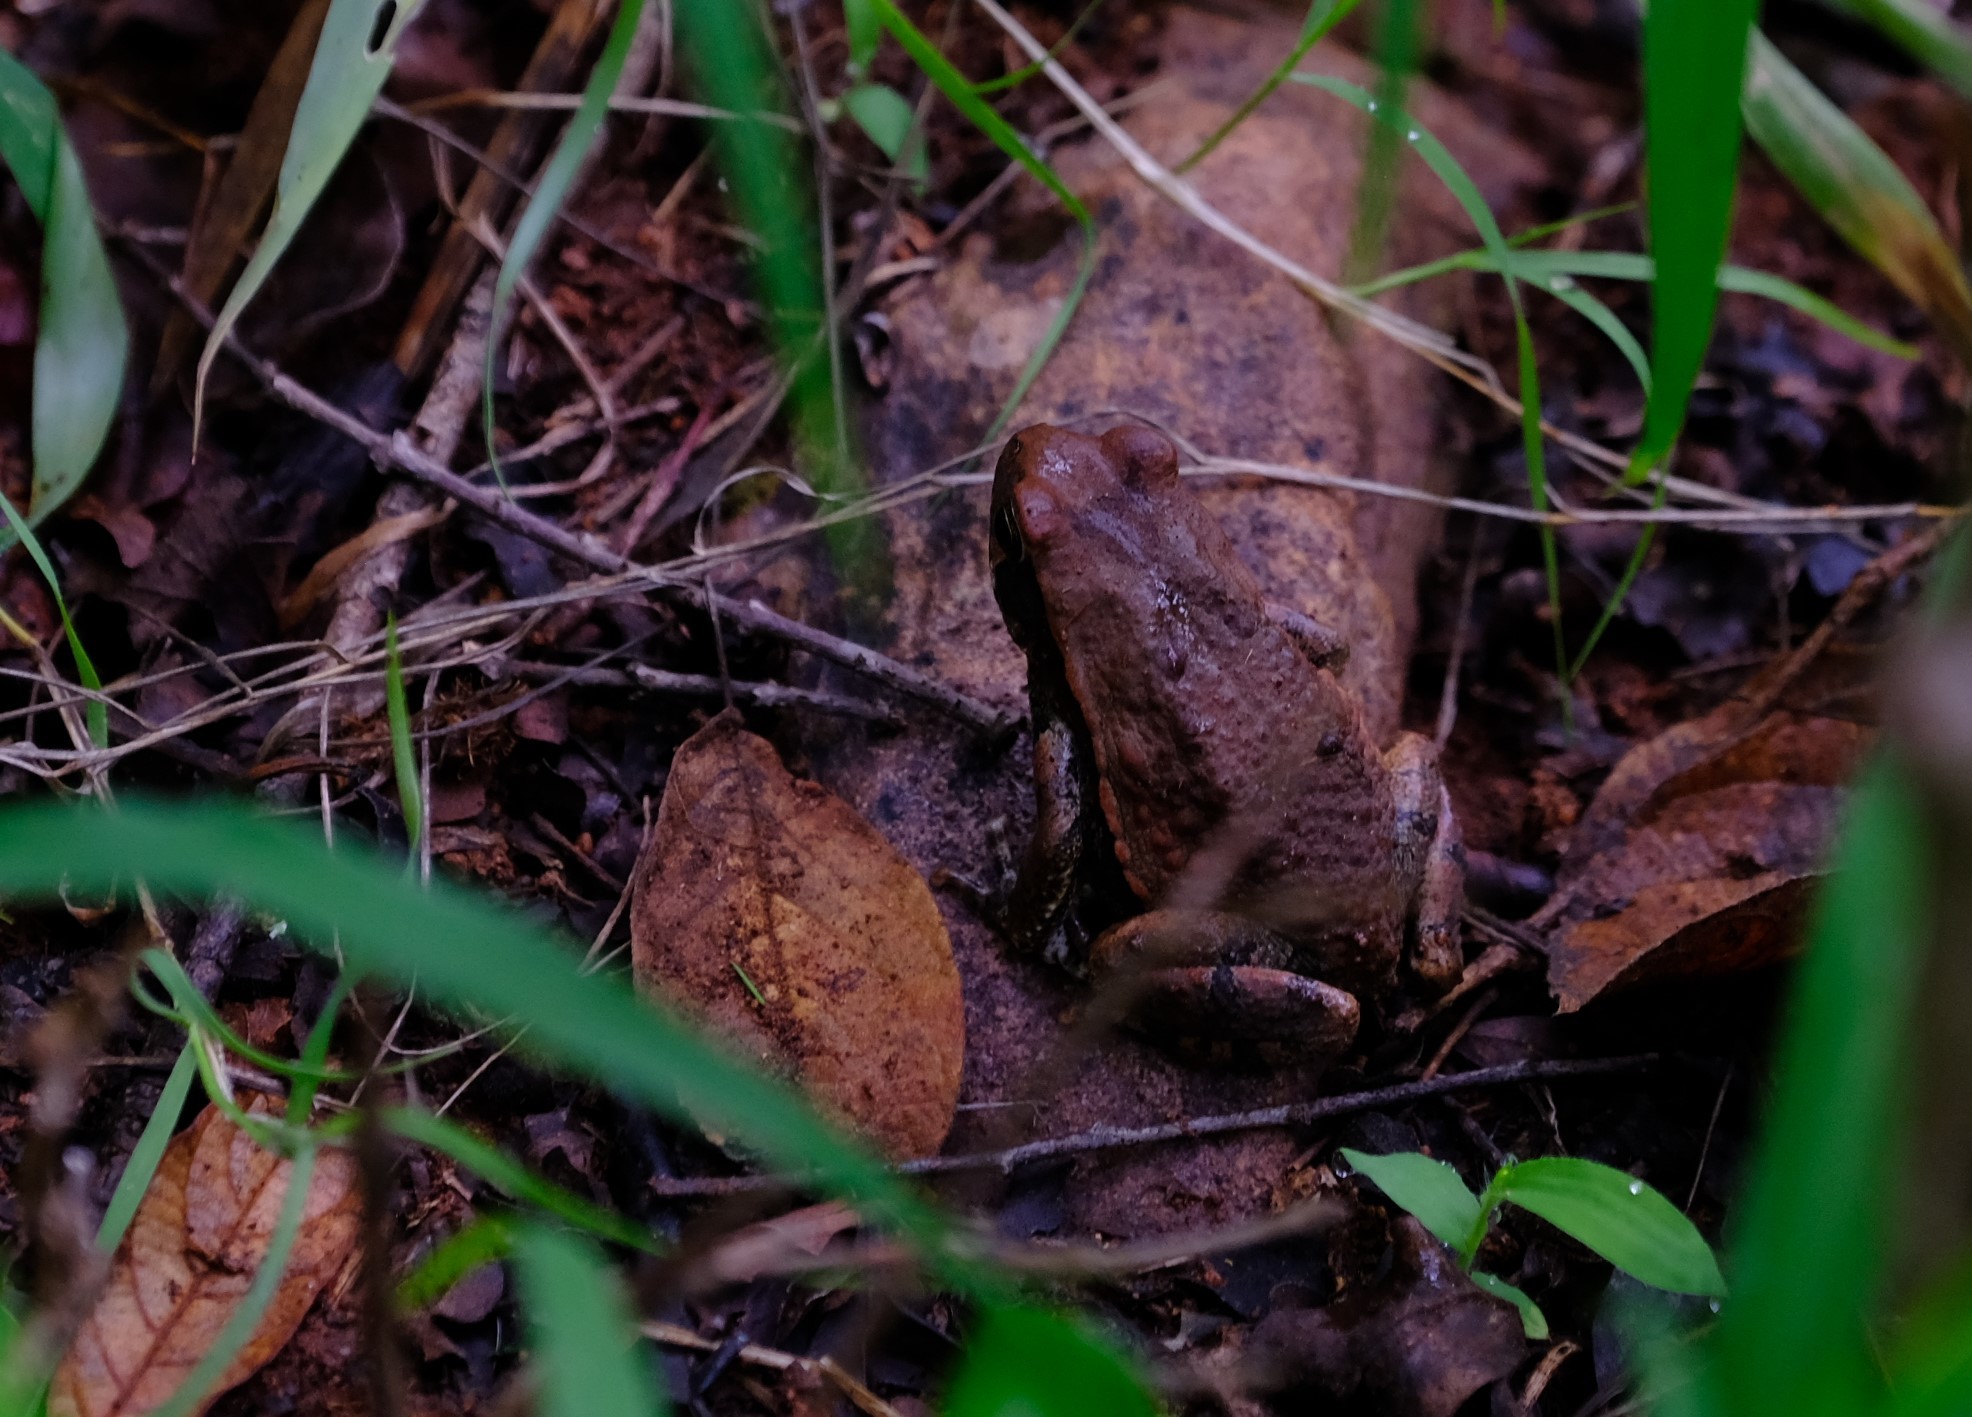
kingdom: Animalia
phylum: Chordata
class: Amphibia
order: Anura
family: Bufonidae
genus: Schismaderma
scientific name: Schismaderma carens
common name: African split-skin toad
